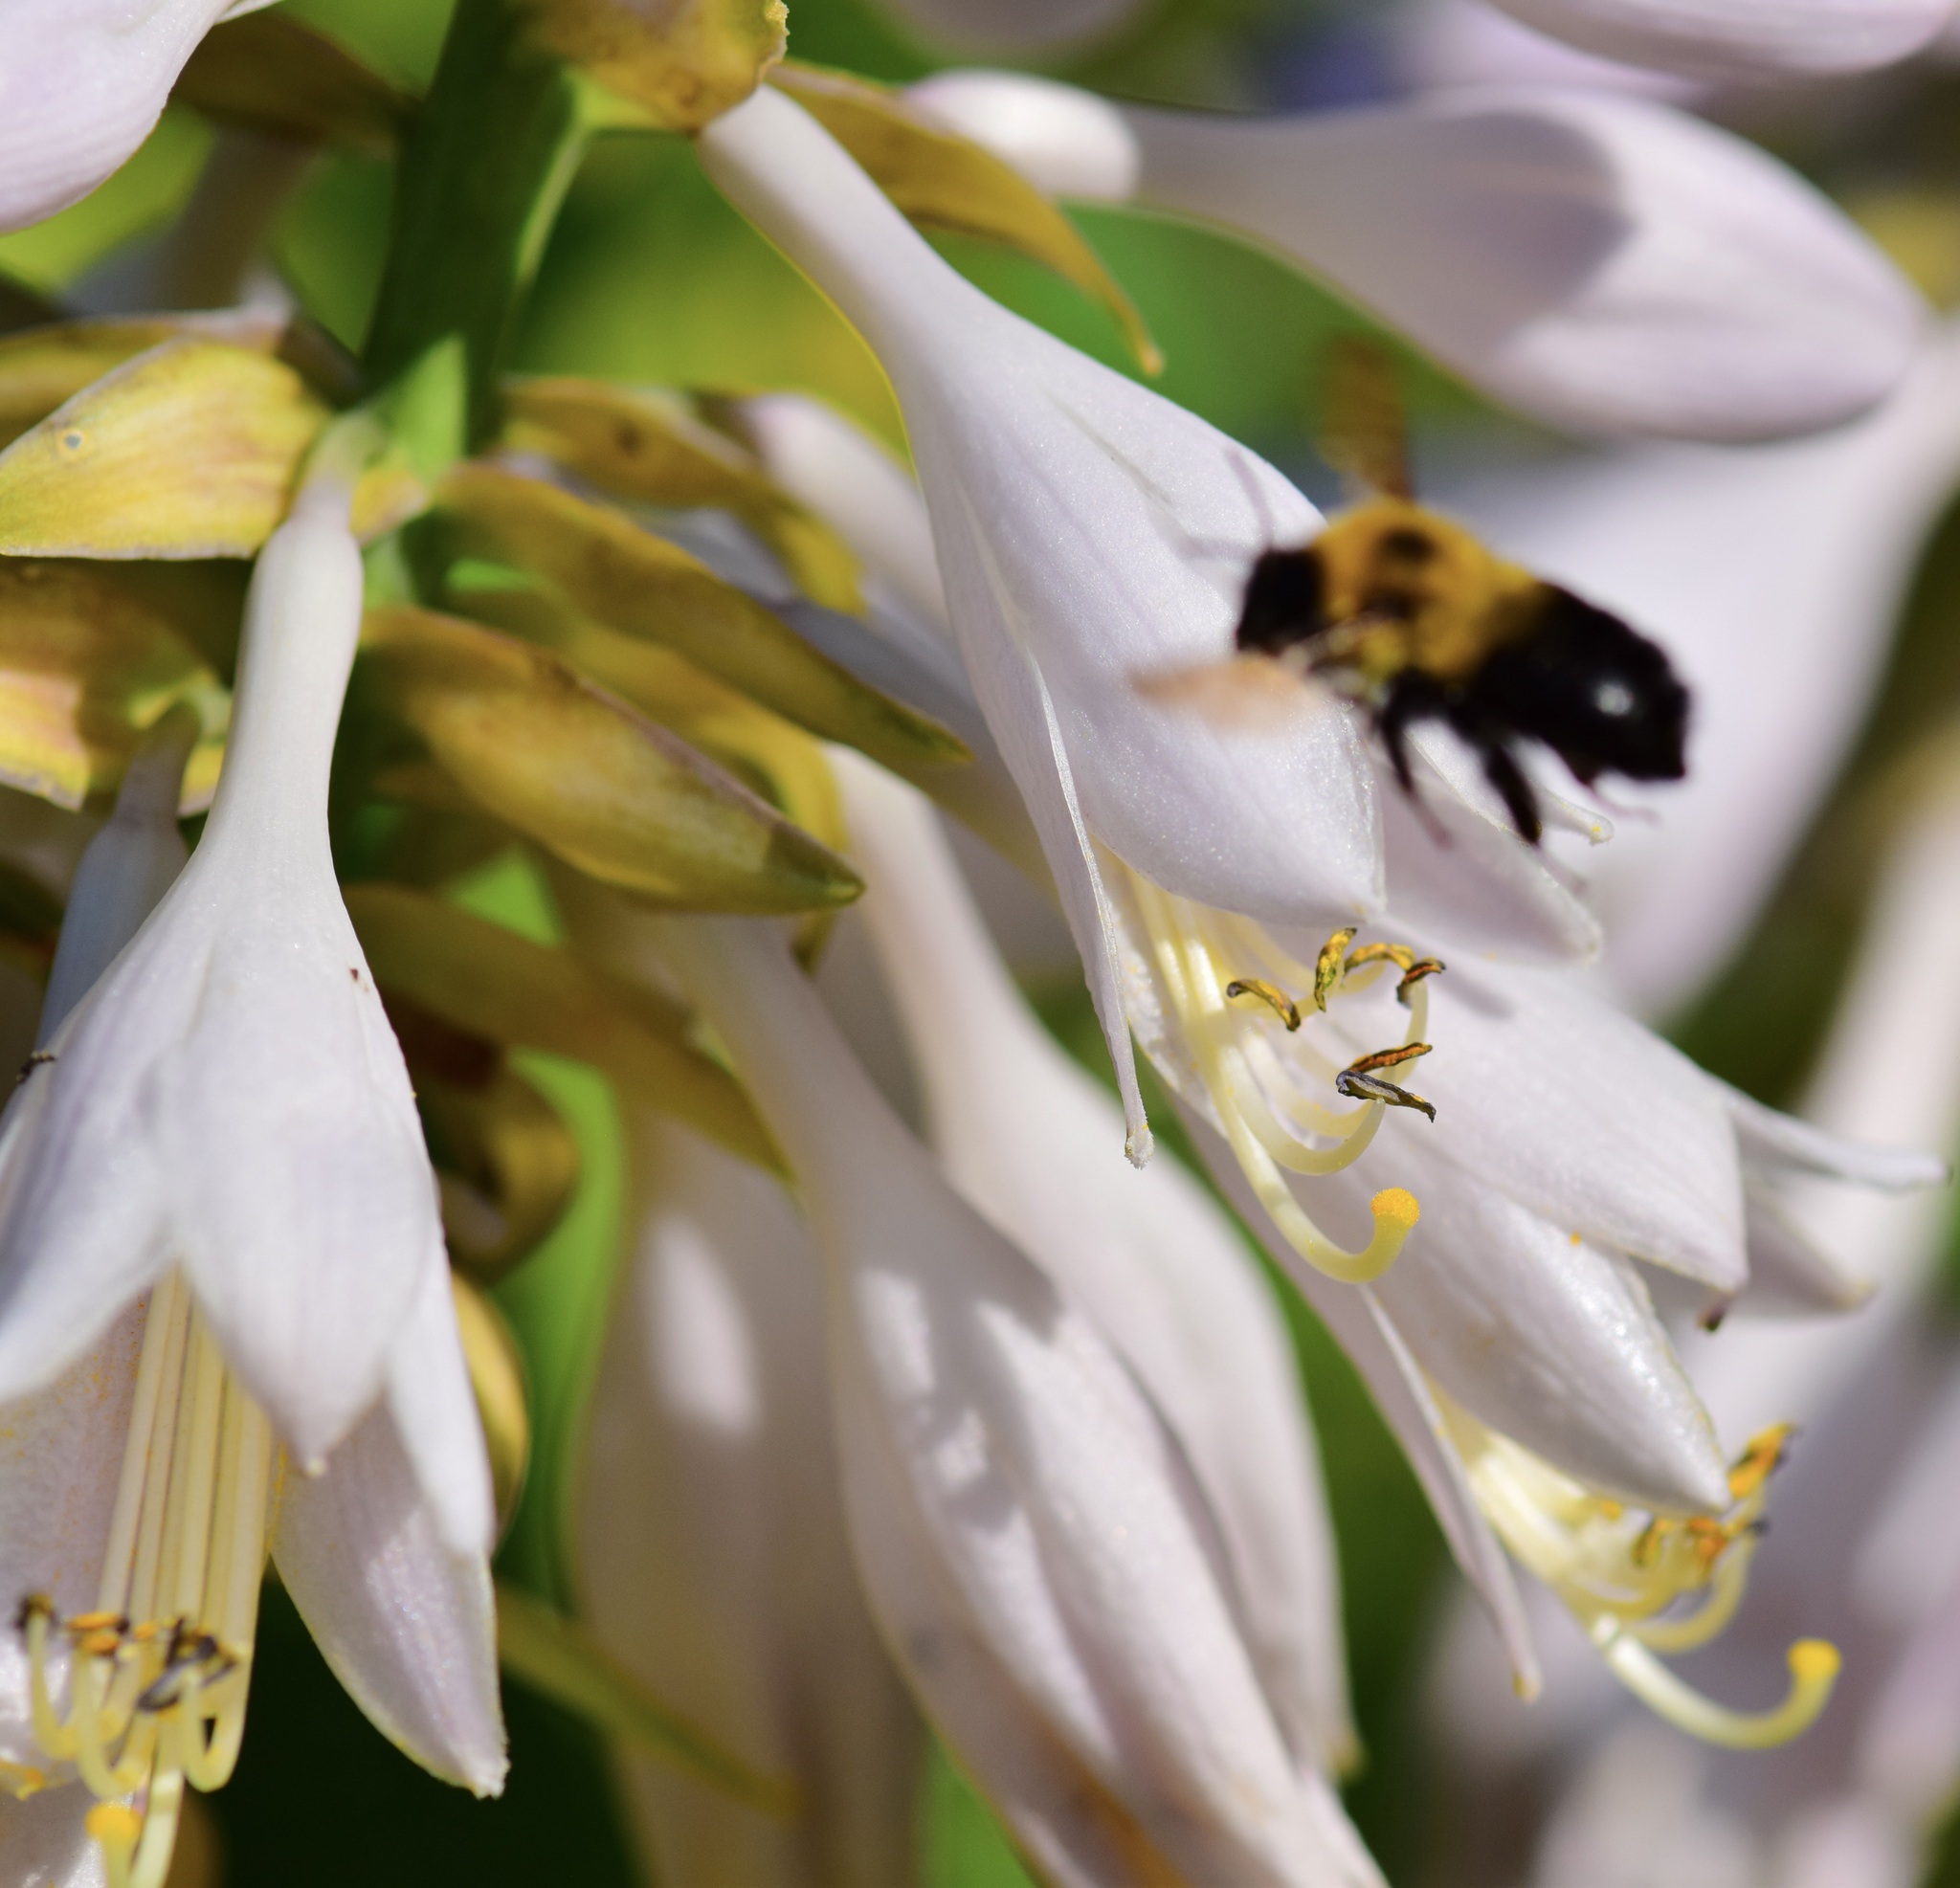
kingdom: Animalia
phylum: Arthropoda
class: Insecta
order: Hymenoptera
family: Apidae
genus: Bombus
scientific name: Bombus bimaculatus
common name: Two-spotted bumble bee
